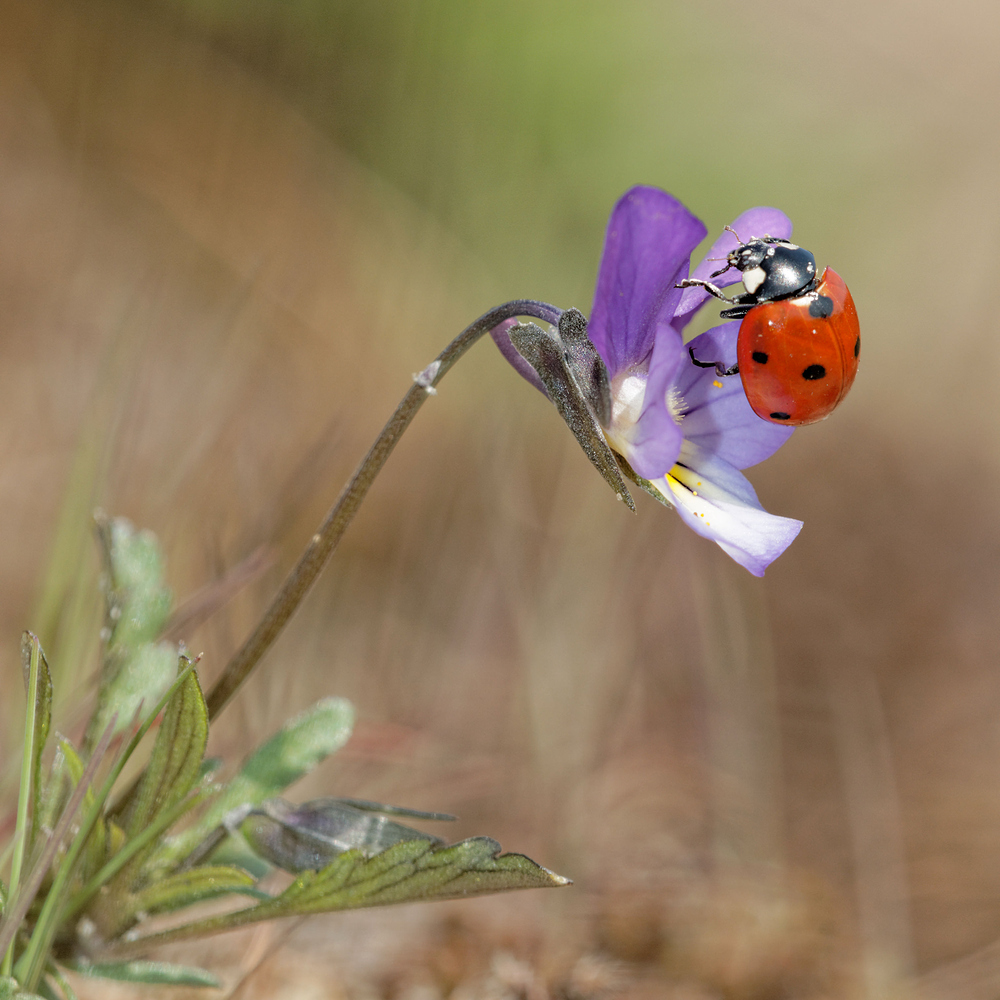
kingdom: Animalia
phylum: Arthropoda
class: Insecta
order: Coleoptera
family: Coccinellidae
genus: Coccinella
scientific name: Coccinella septempunctata
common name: Sevenspotted lady beetle
